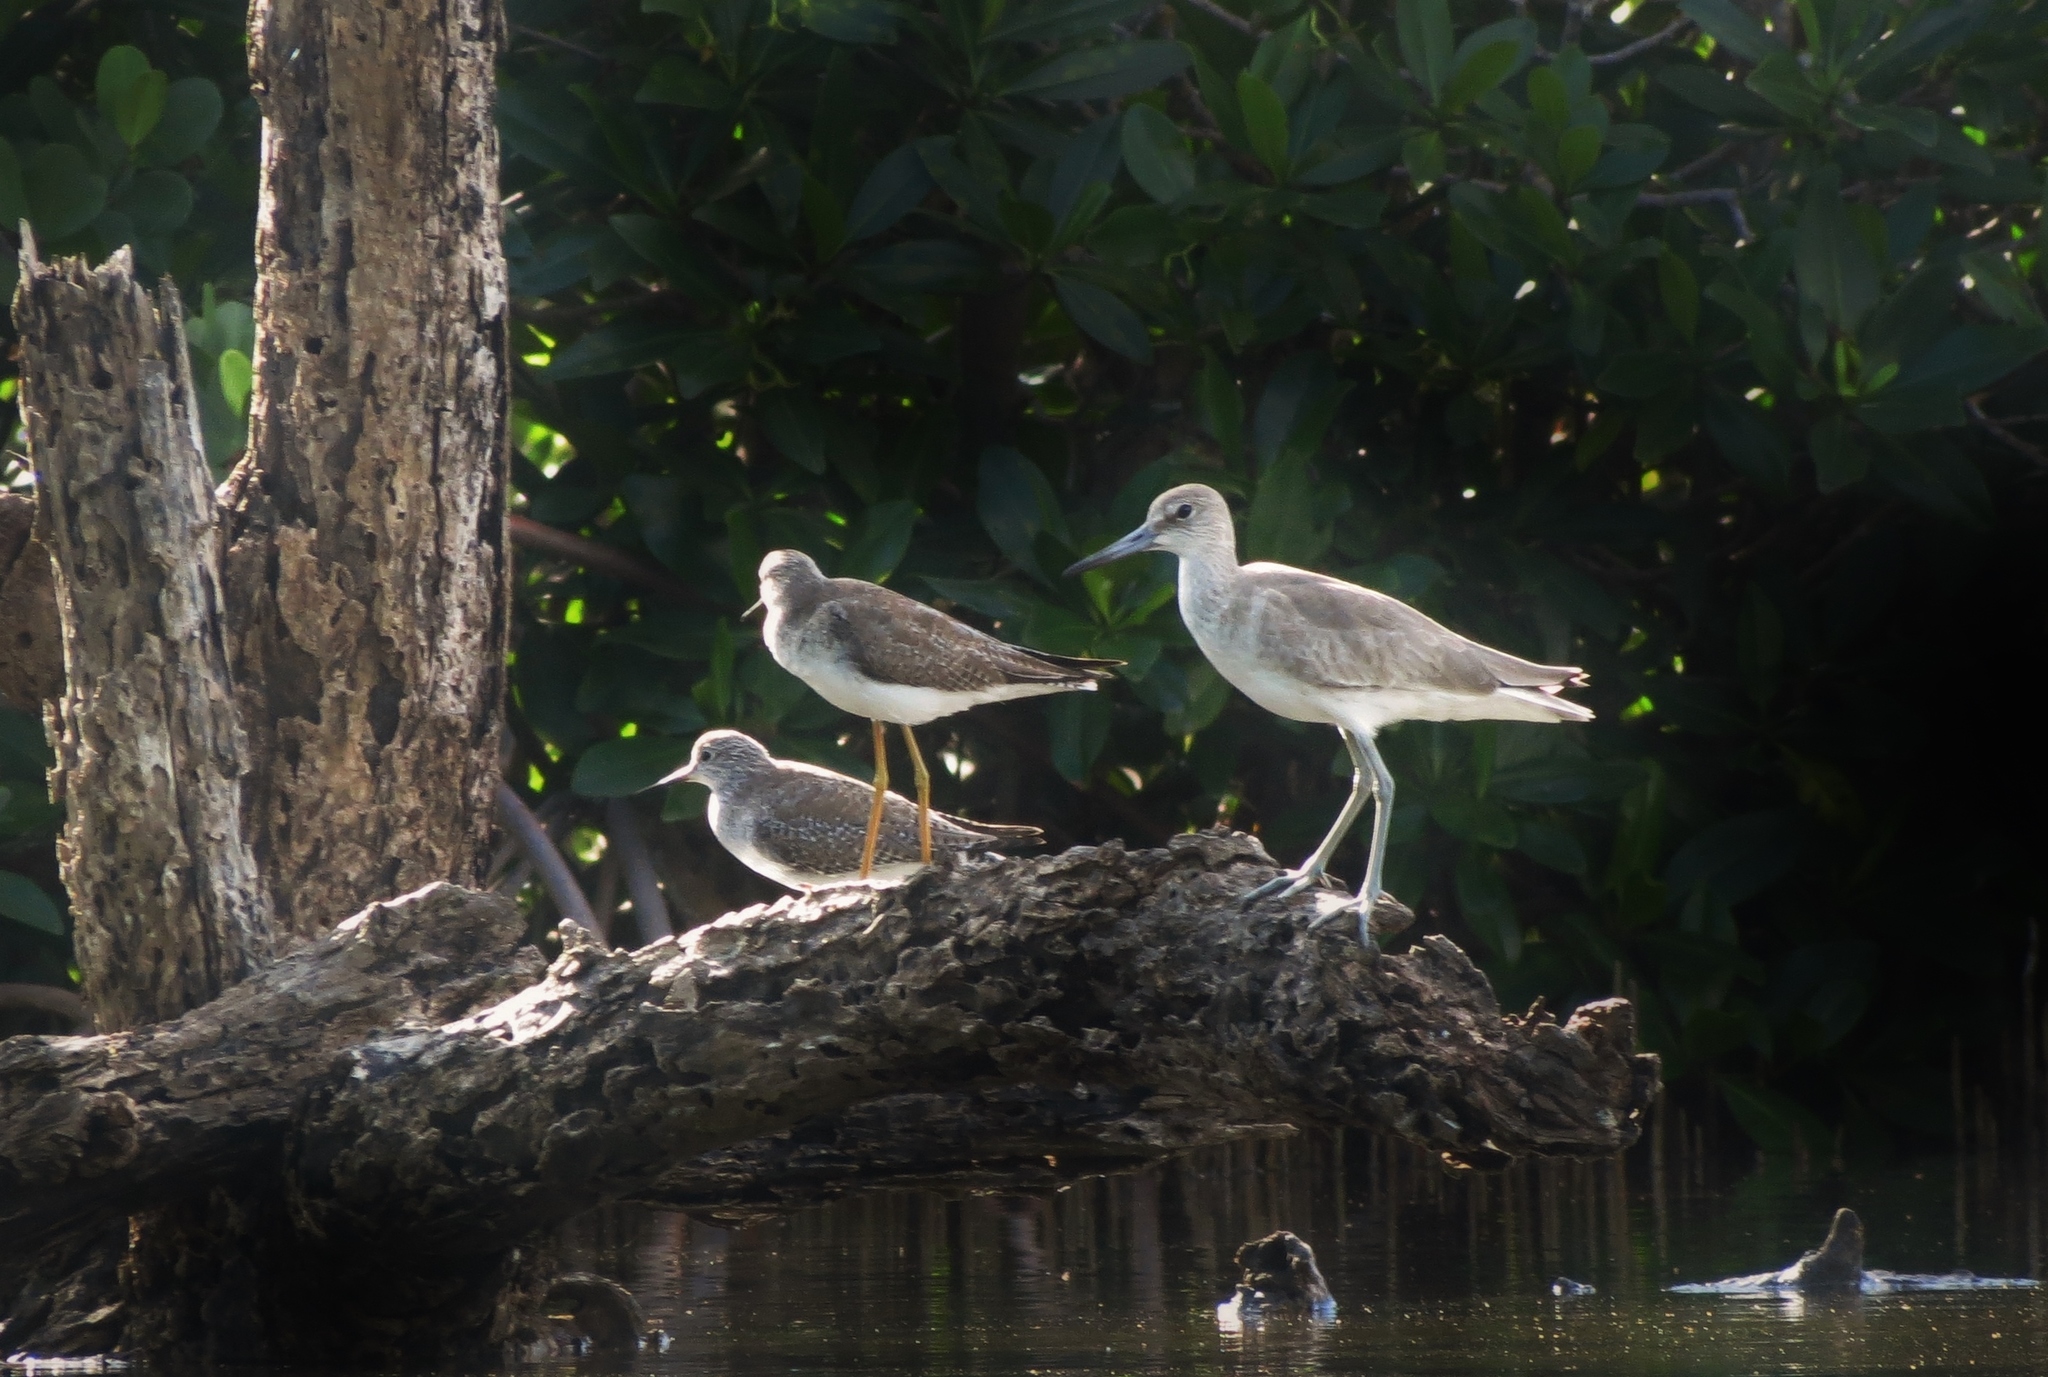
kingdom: Animalia
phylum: Chordata
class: Aves
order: Charadriiformes
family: Scolopacidae
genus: Tringa
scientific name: Tringa semipalmata
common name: Willet
